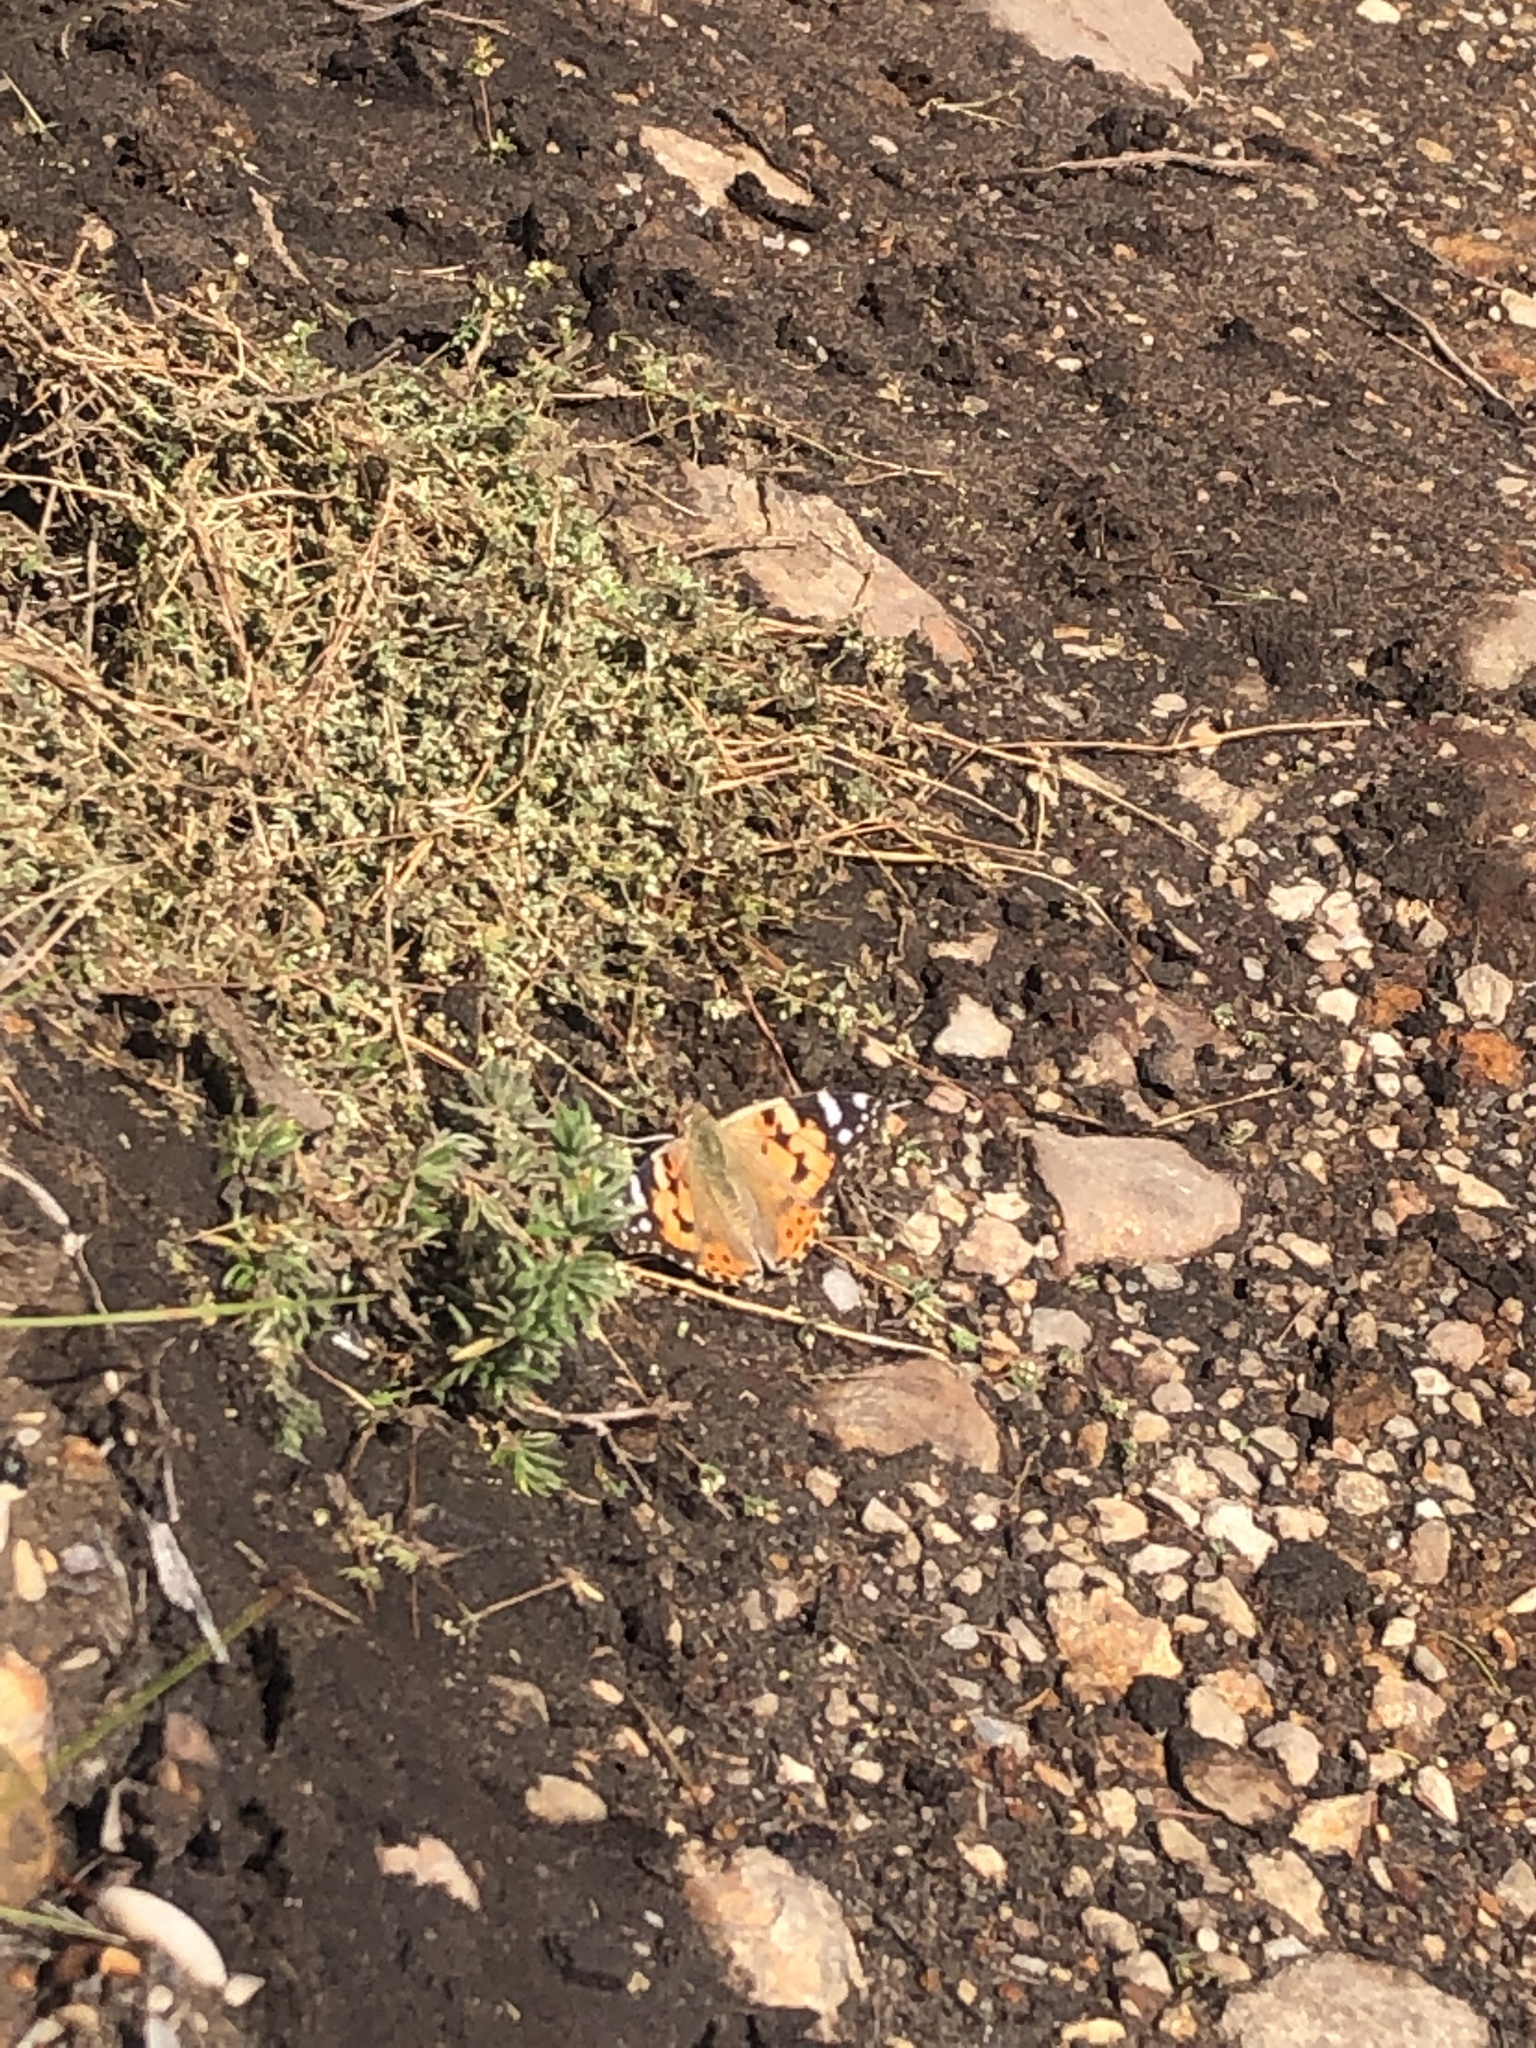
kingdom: Animalia
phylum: Arthropoda
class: Insecta
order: Lepidoptera
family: Nymphalidae
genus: Vanessa
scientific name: Vanessa cardui
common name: Painted lady
